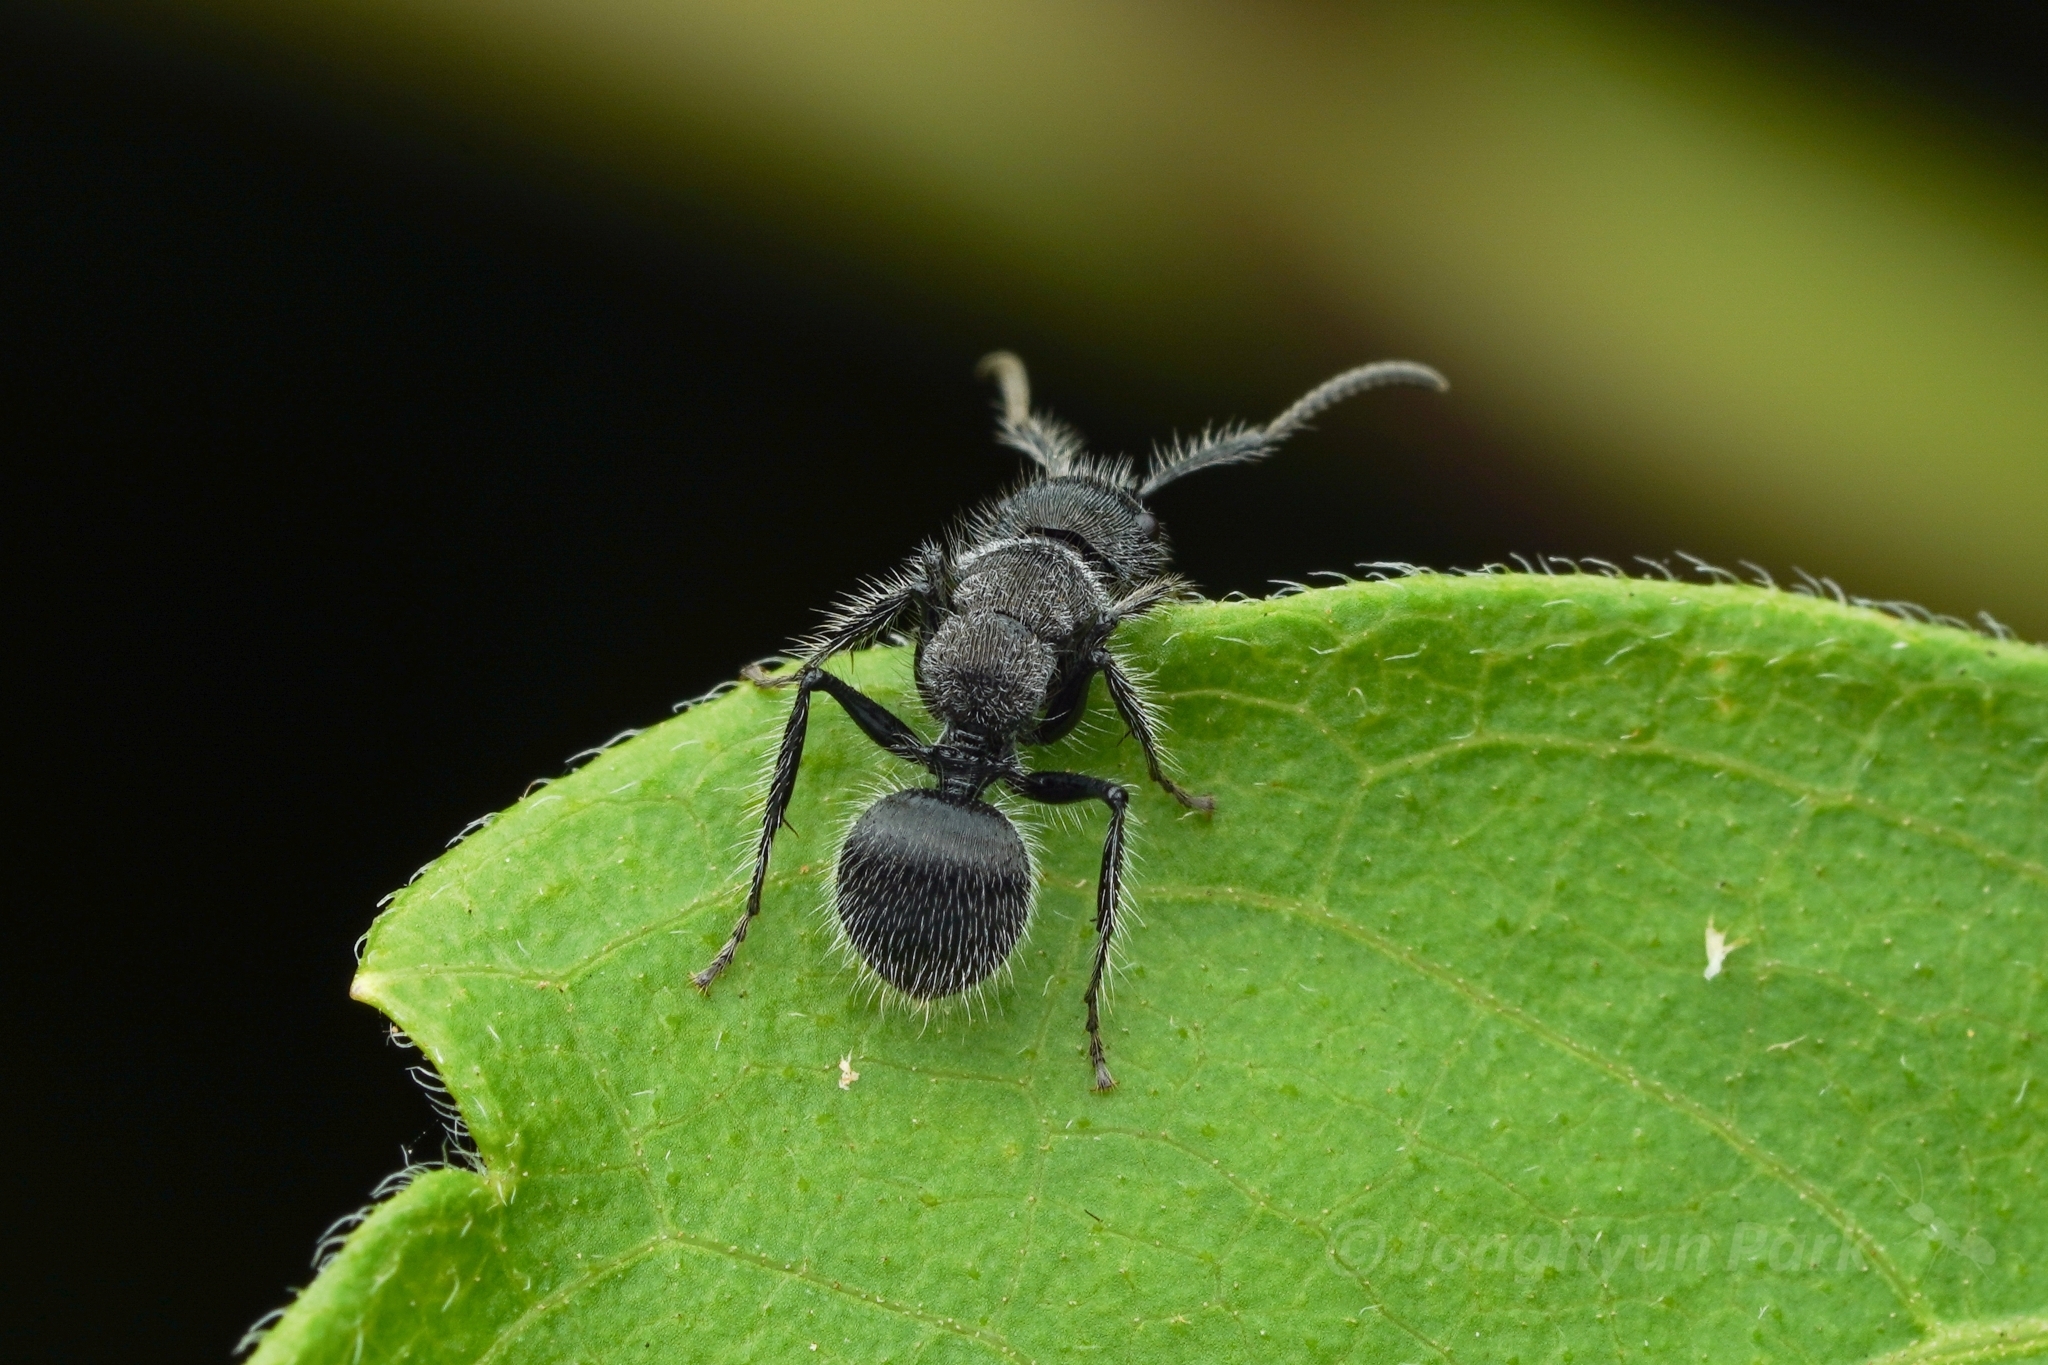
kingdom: Animalia
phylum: Arthropoda
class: Insecta
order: Hymenoptera
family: Formicidae
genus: Echinopla
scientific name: Echinopla lineata
